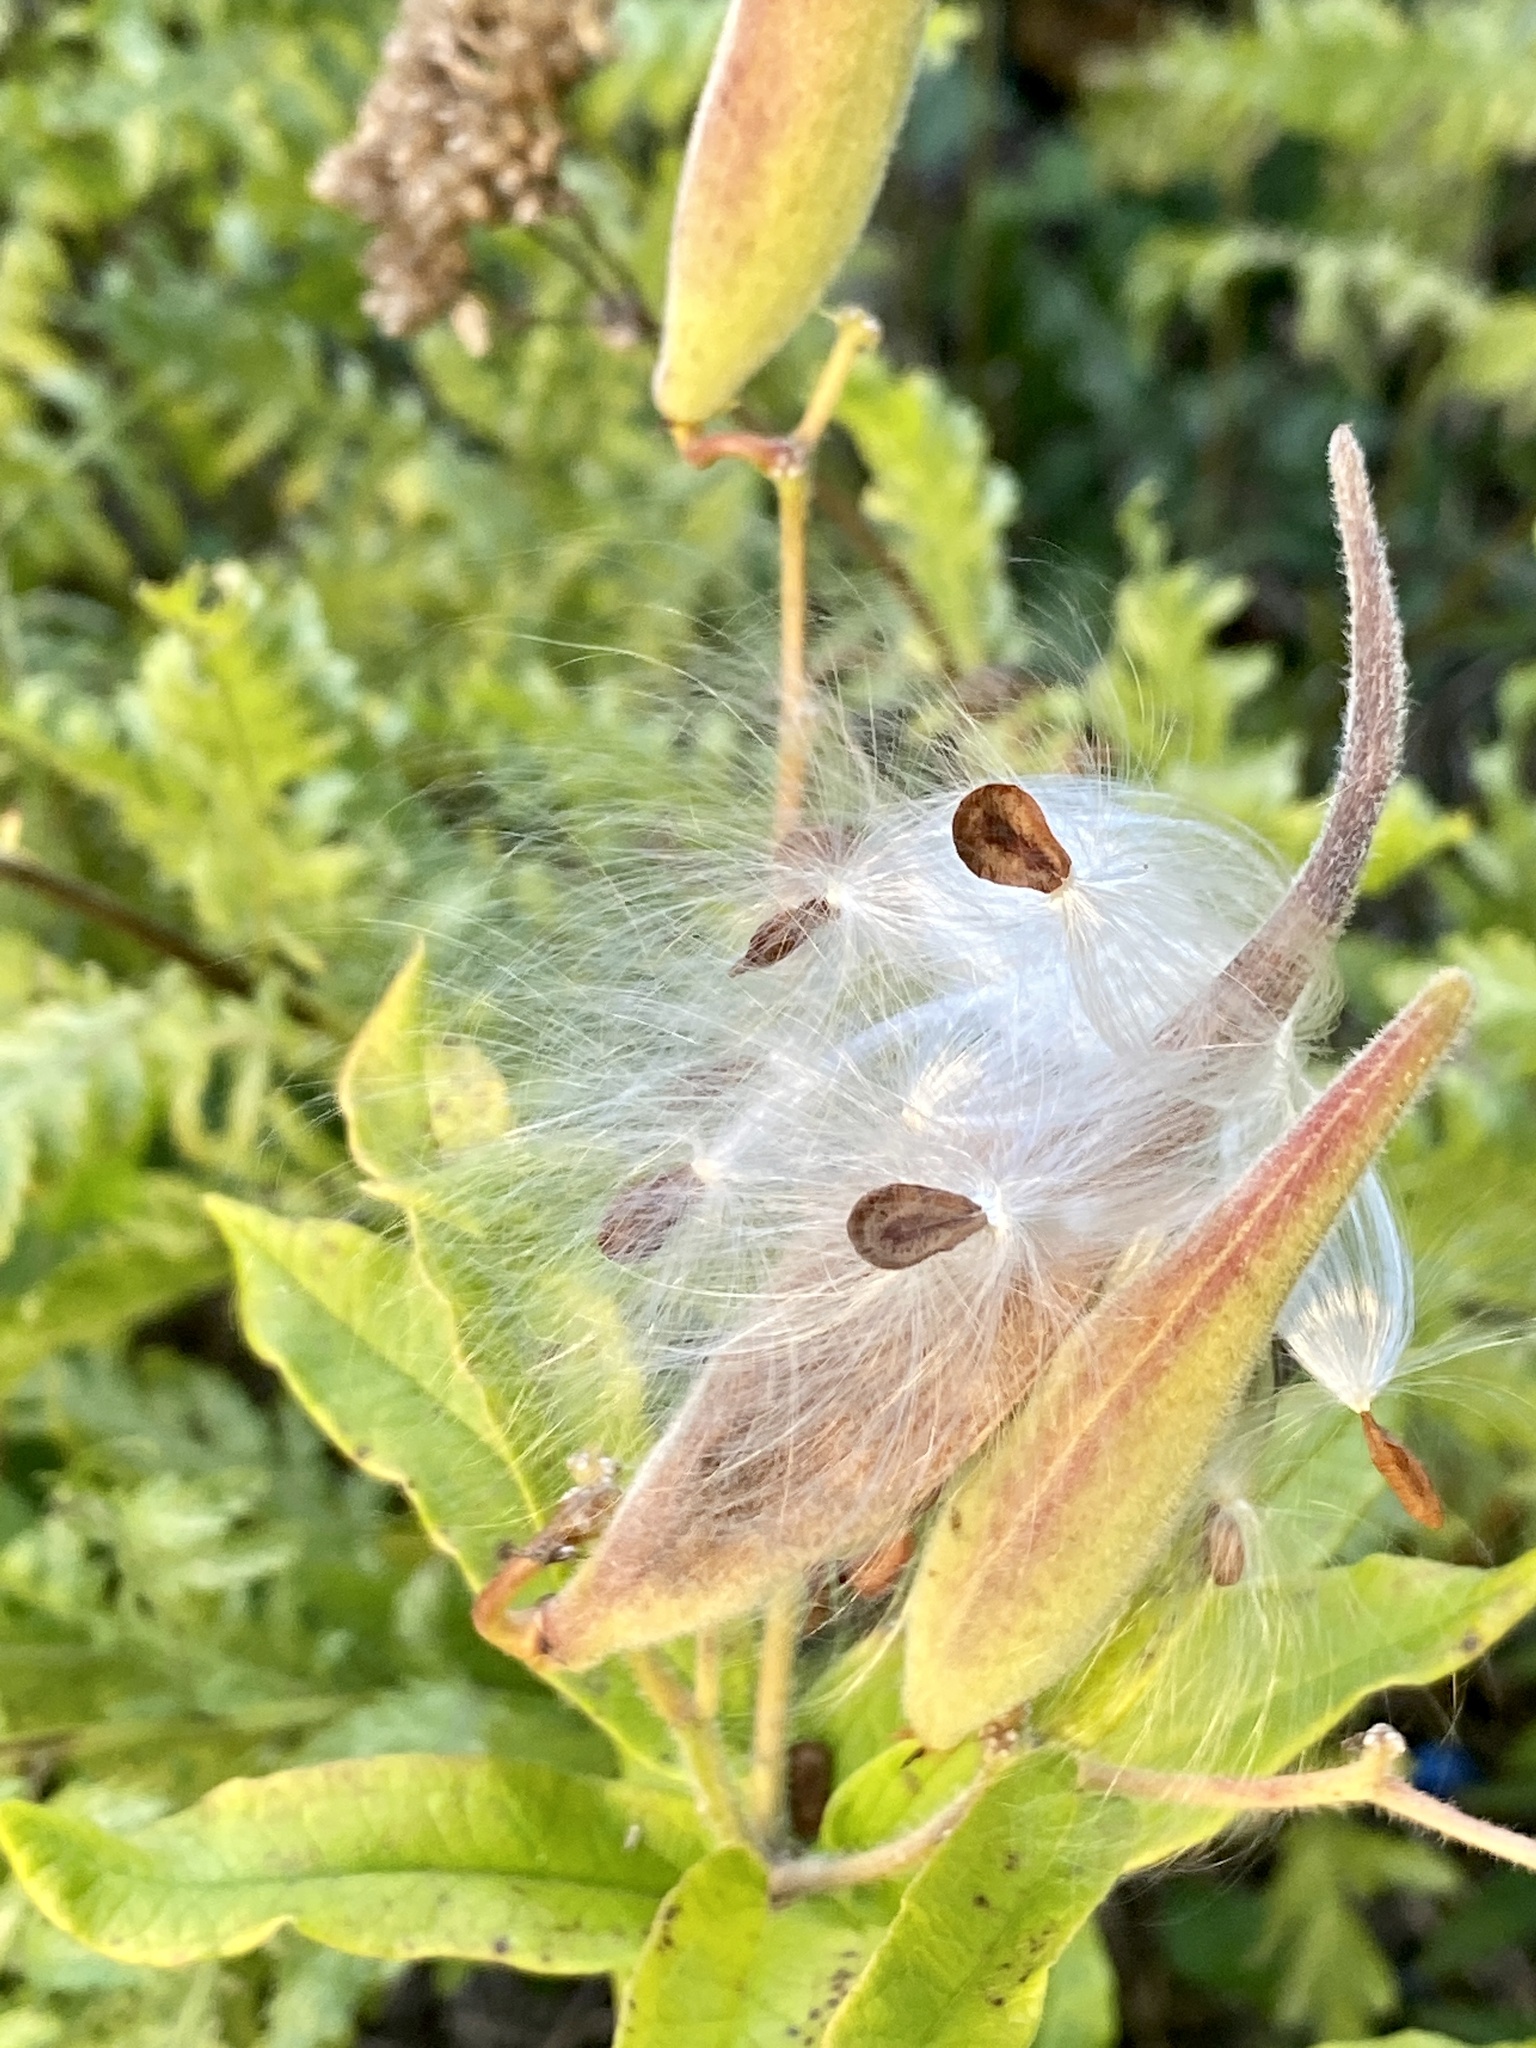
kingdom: Plantae
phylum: Tracheophyta
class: Magnoliopsida
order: Gentianales
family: Apocynaceae
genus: Asclepias
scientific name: Asclepias tuberosa
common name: Butterfly milkweed
